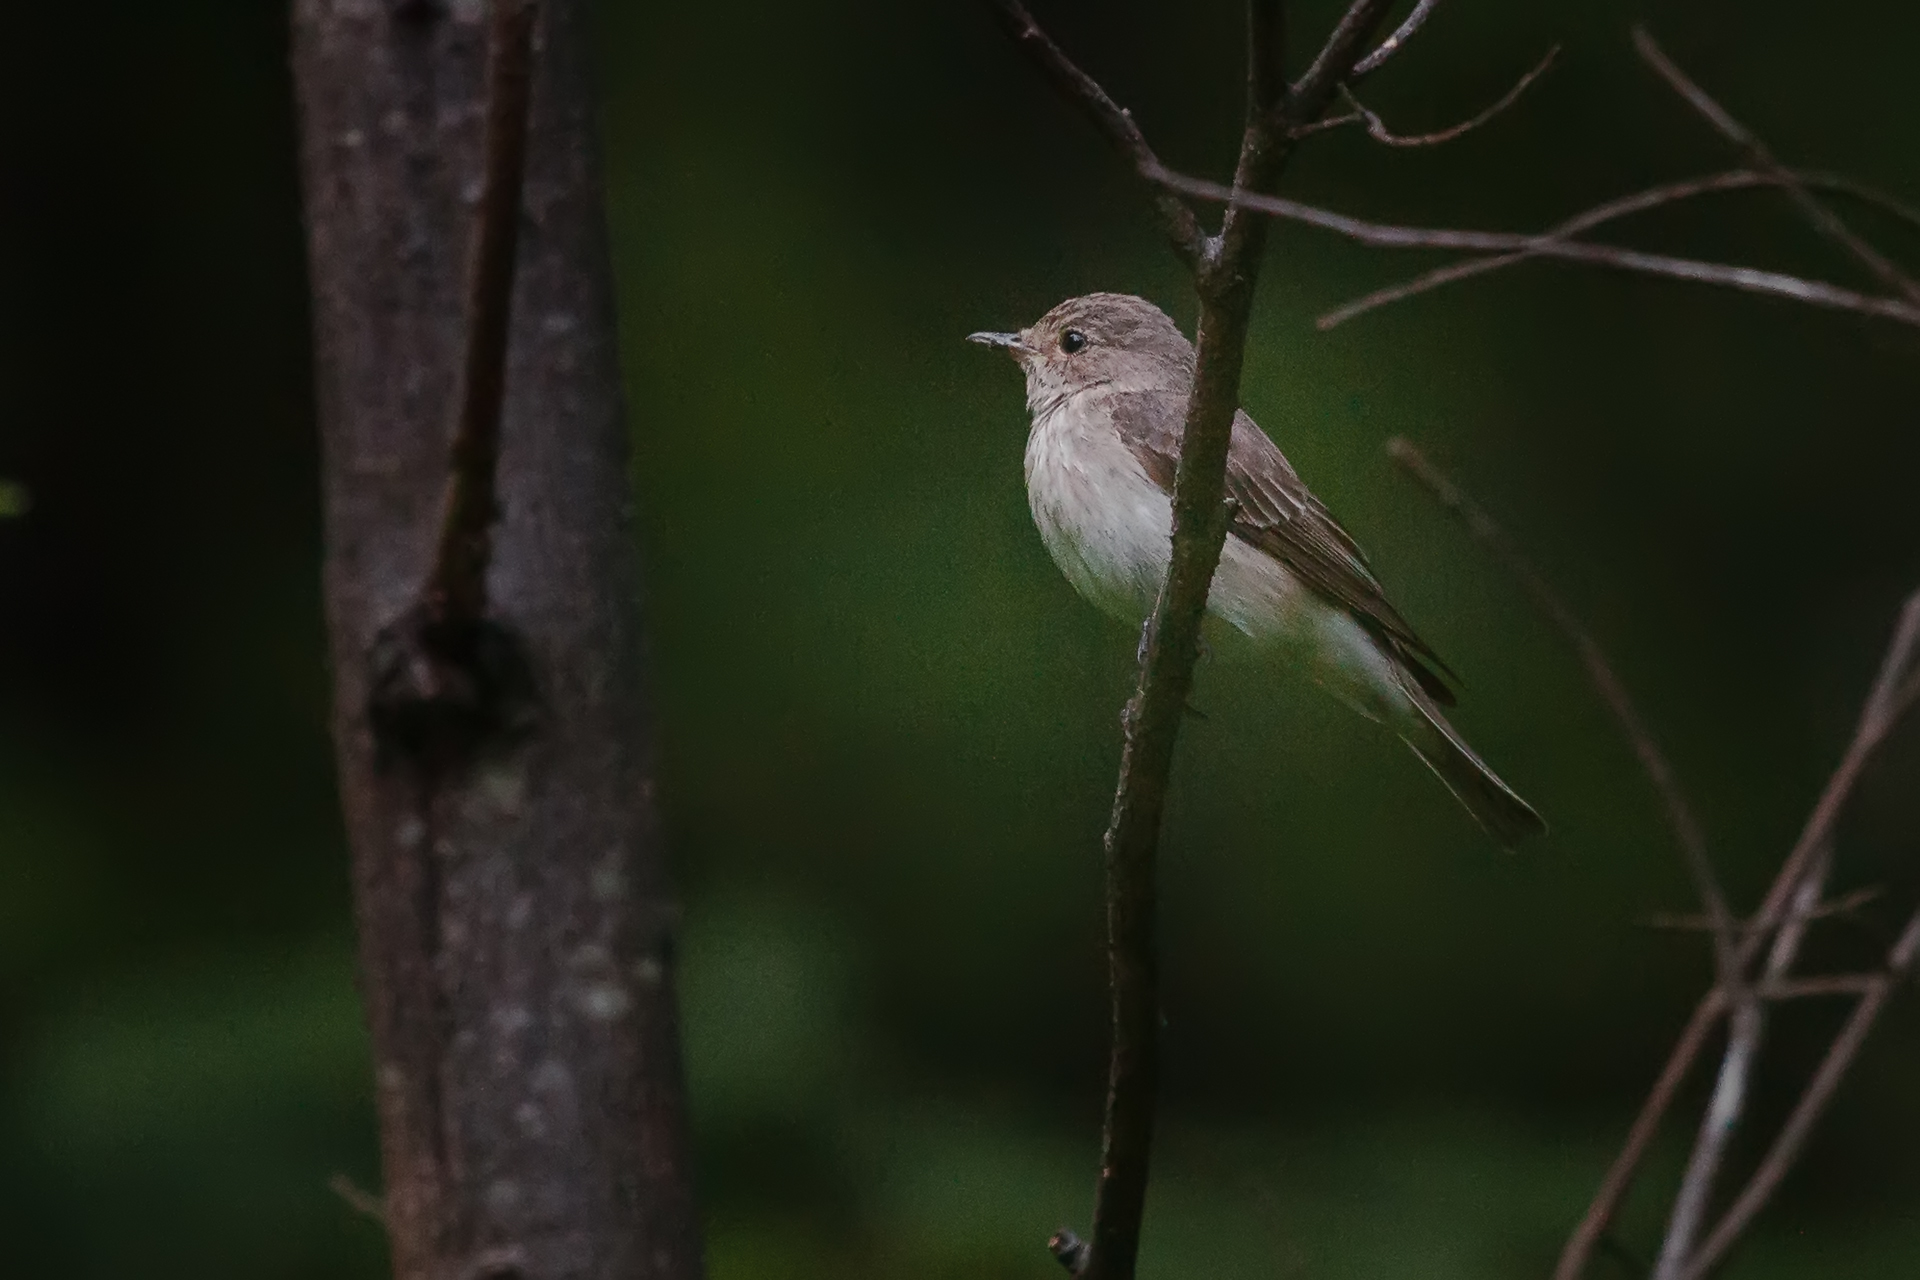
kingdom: Animalia
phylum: Chordata
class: Aves
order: Passeriformes
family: Muscicapidae
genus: Muscicapa
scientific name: Muscicapa striata
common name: Spotted flycatcher
